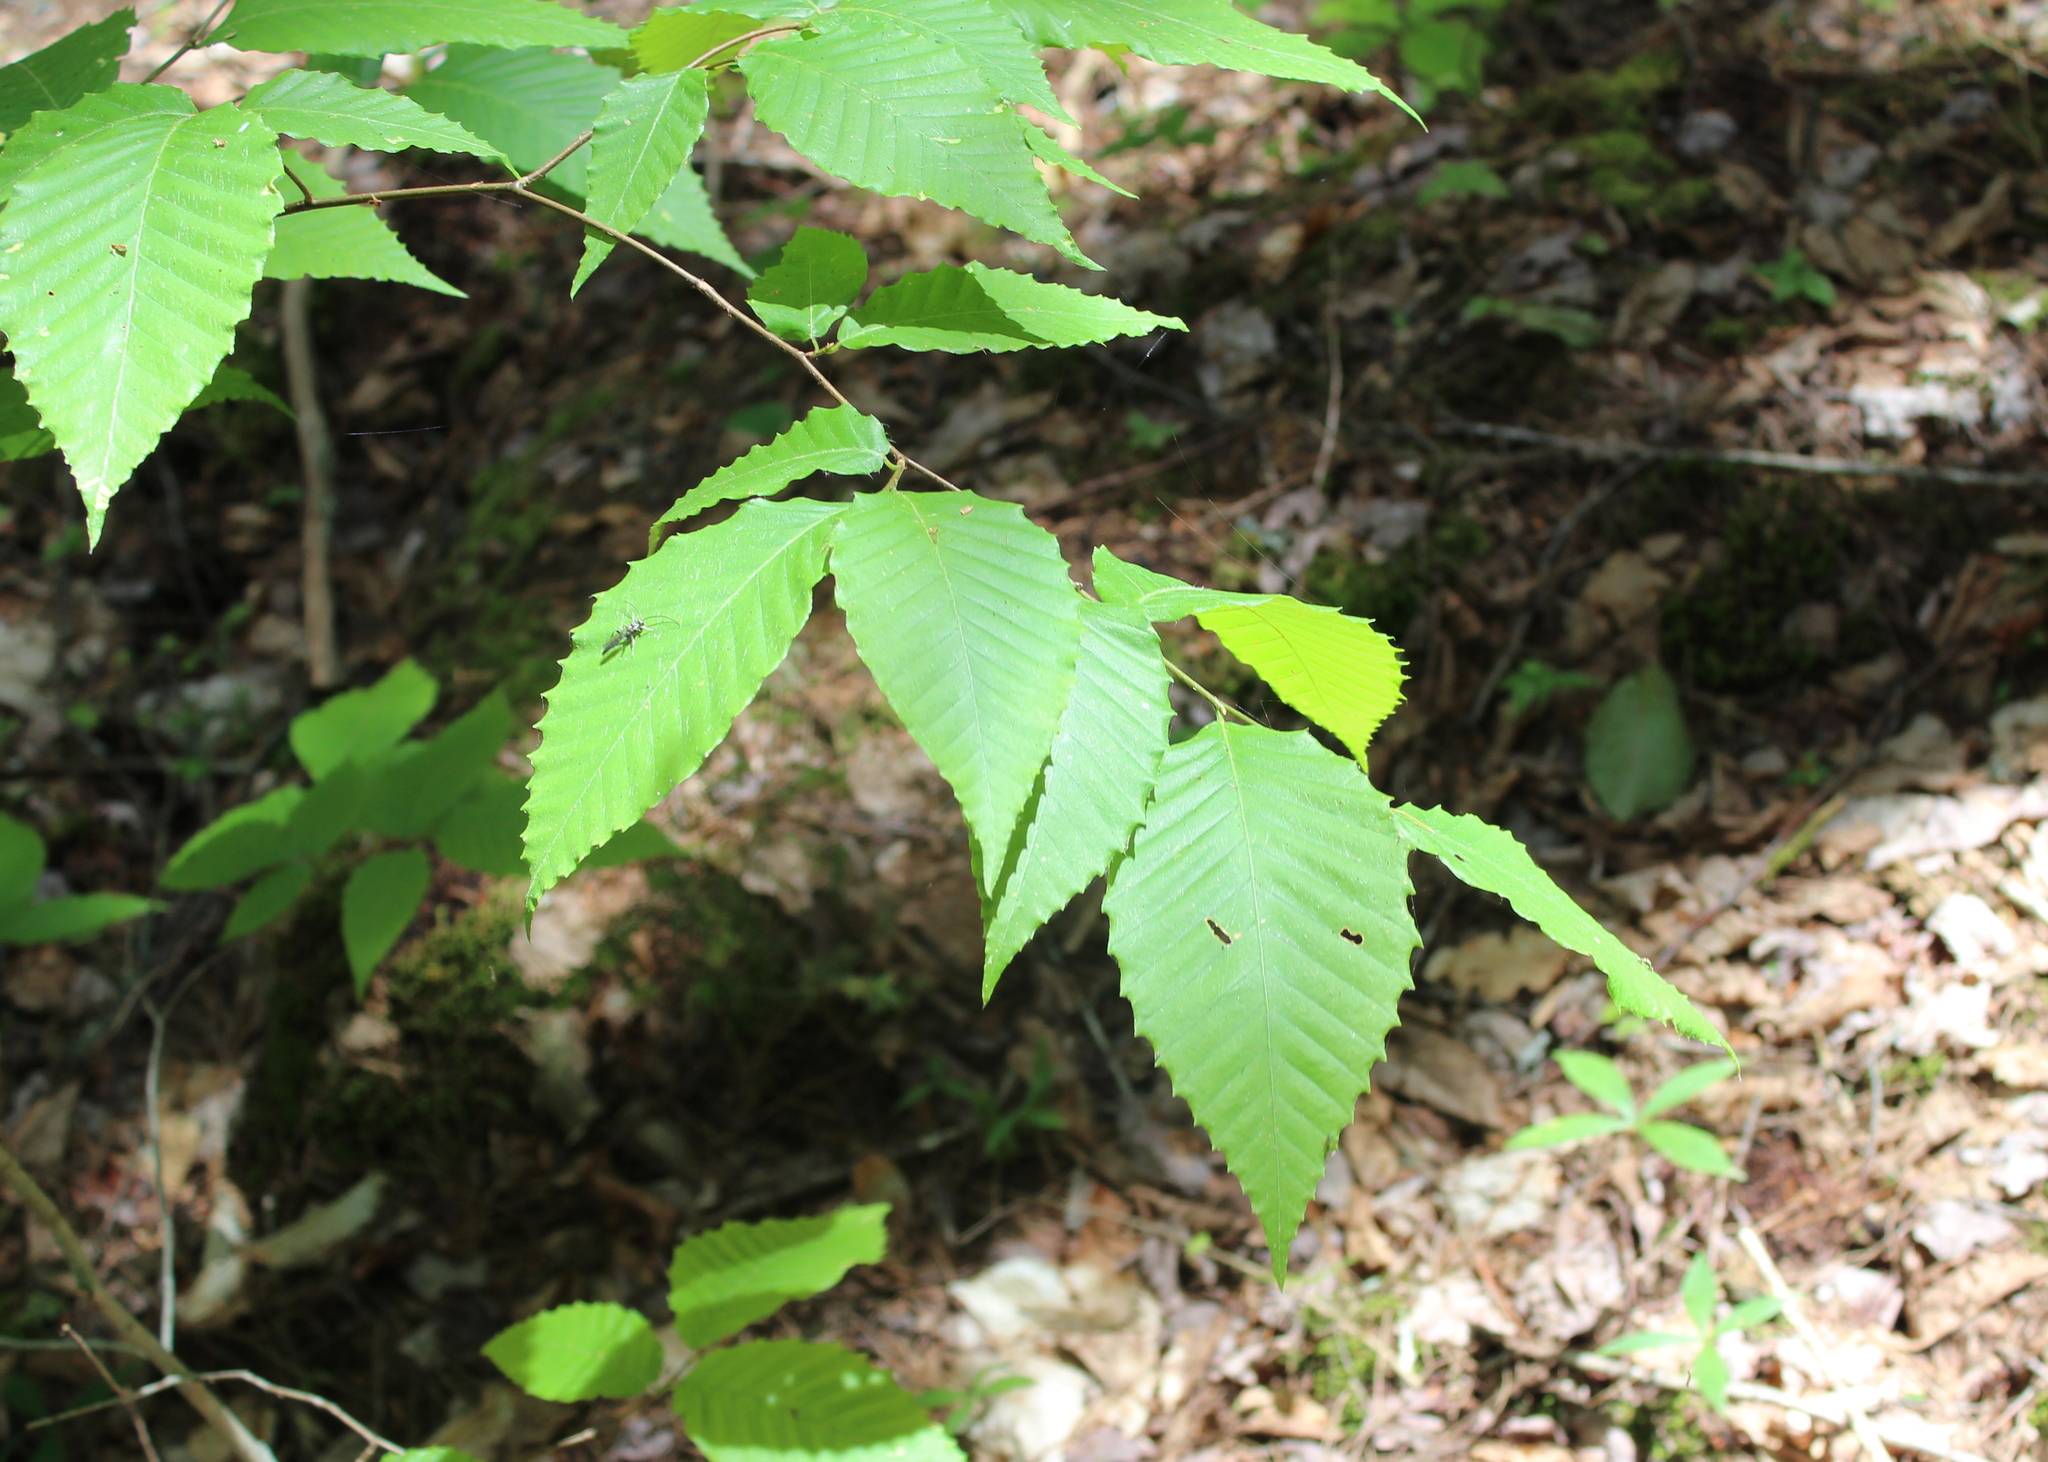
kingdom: Plantae
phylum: Tracheophyta
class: Magnoliopsida
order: Fagales
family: Fagaceae
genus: Fagus
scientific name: Fagus grandifolia
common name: American beech
